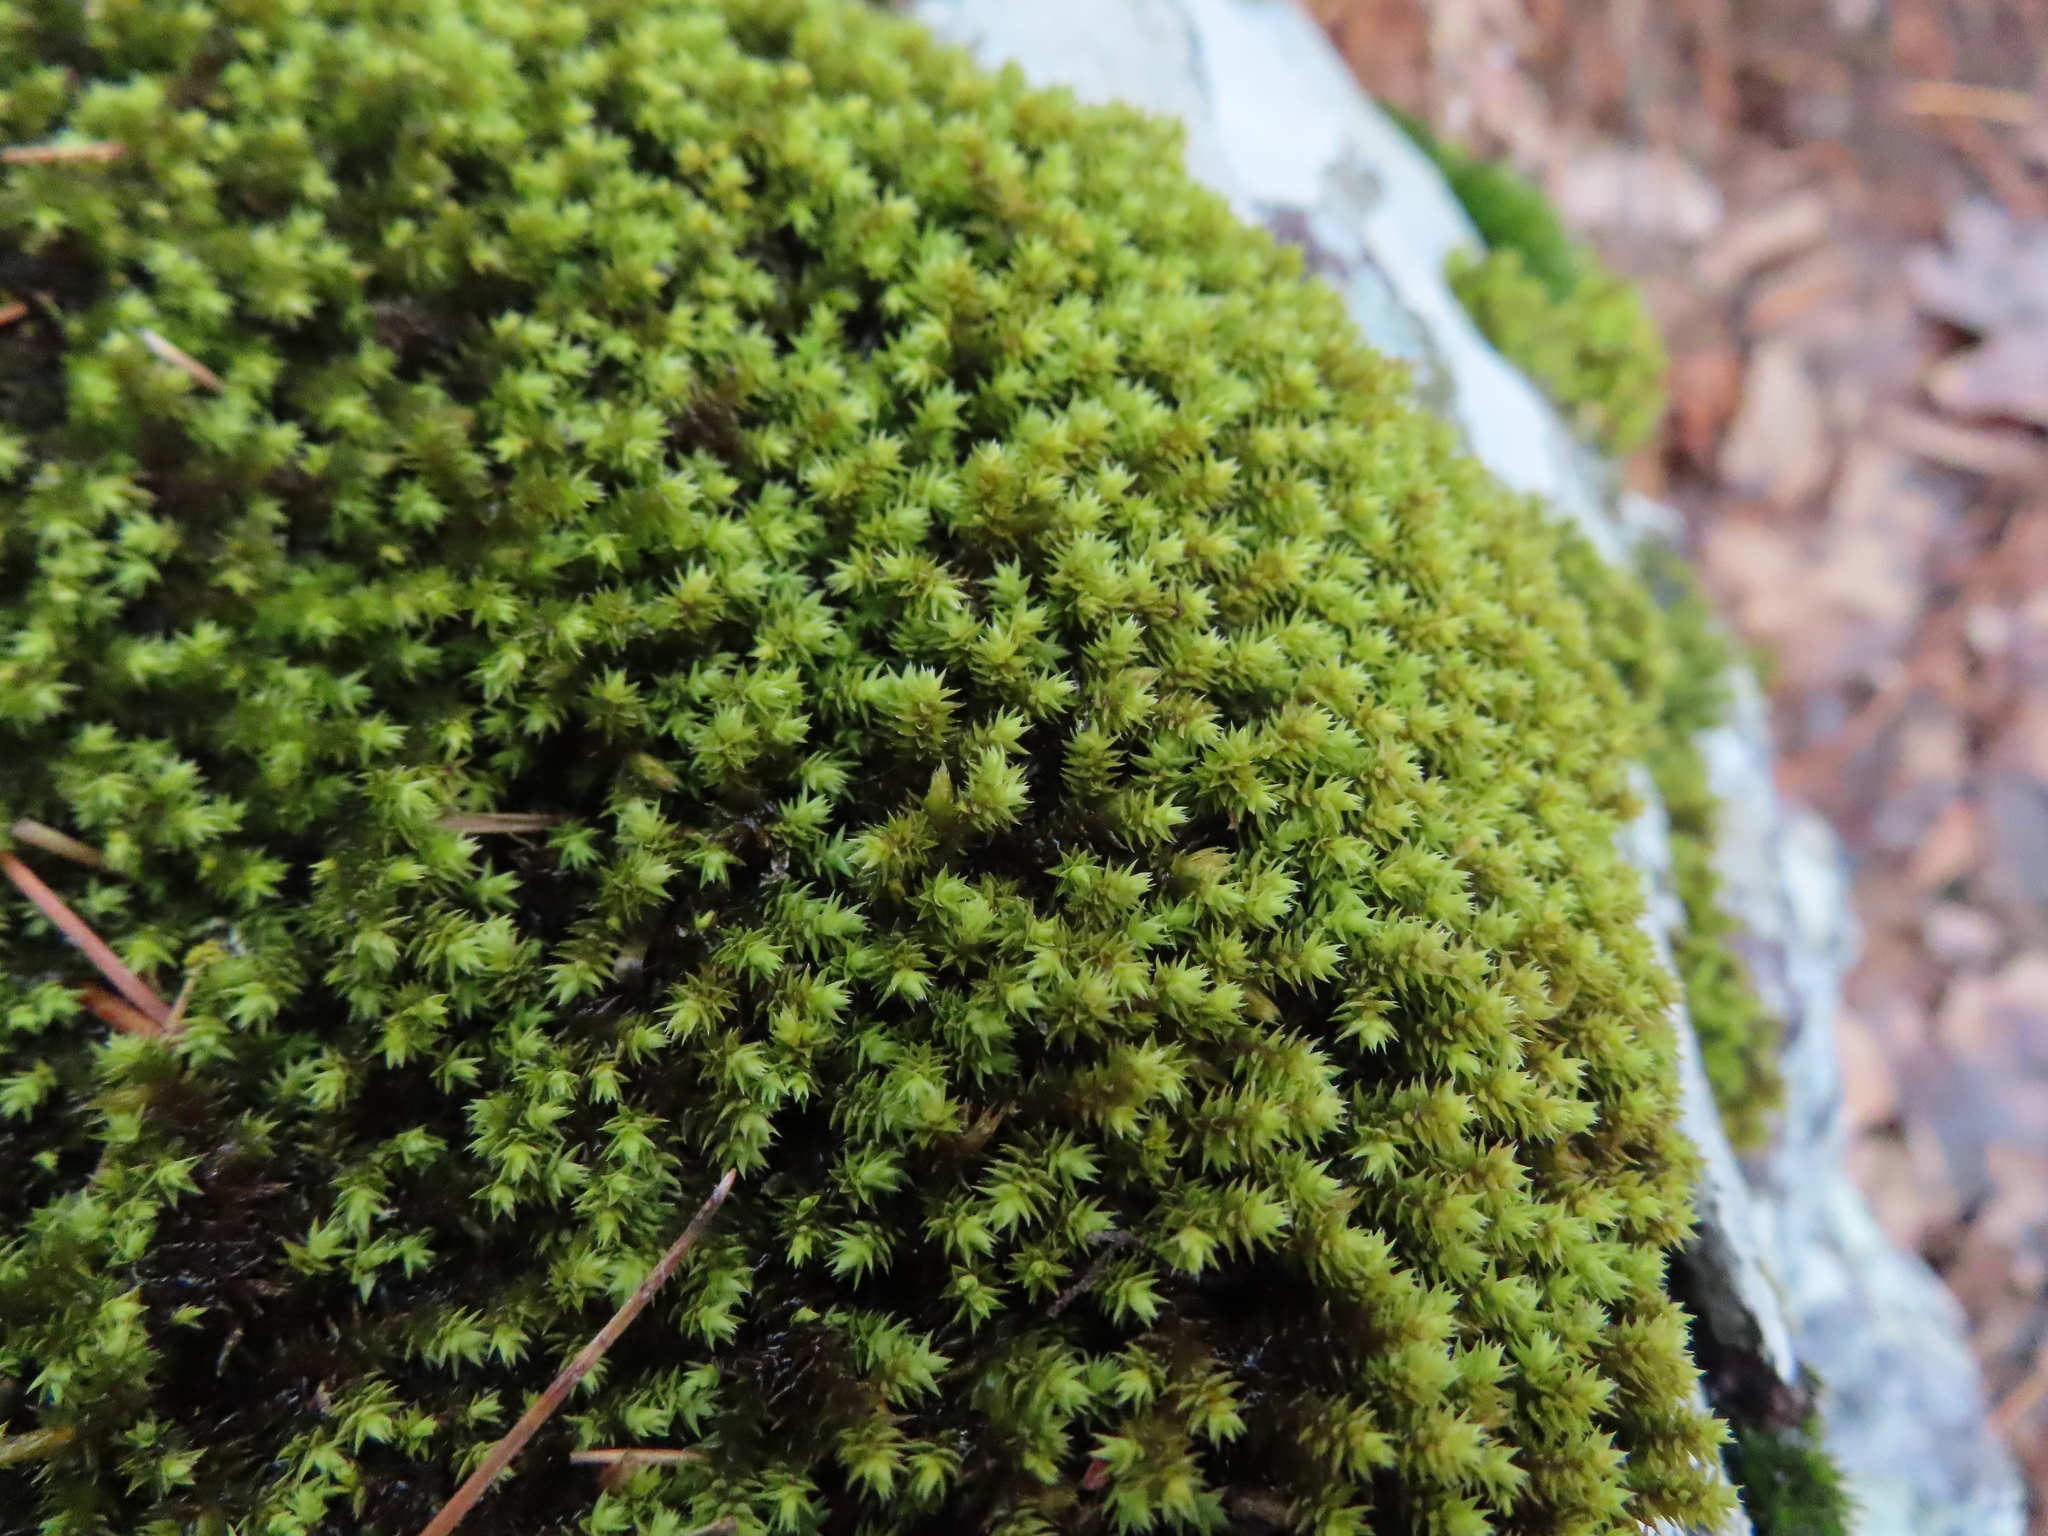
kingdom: Plantae
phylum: Bryophyta
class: Bryopsida
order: Hedwigiales
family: Hedwigiaceae
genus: Hedwigia
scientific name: Hedwigia ciliata
